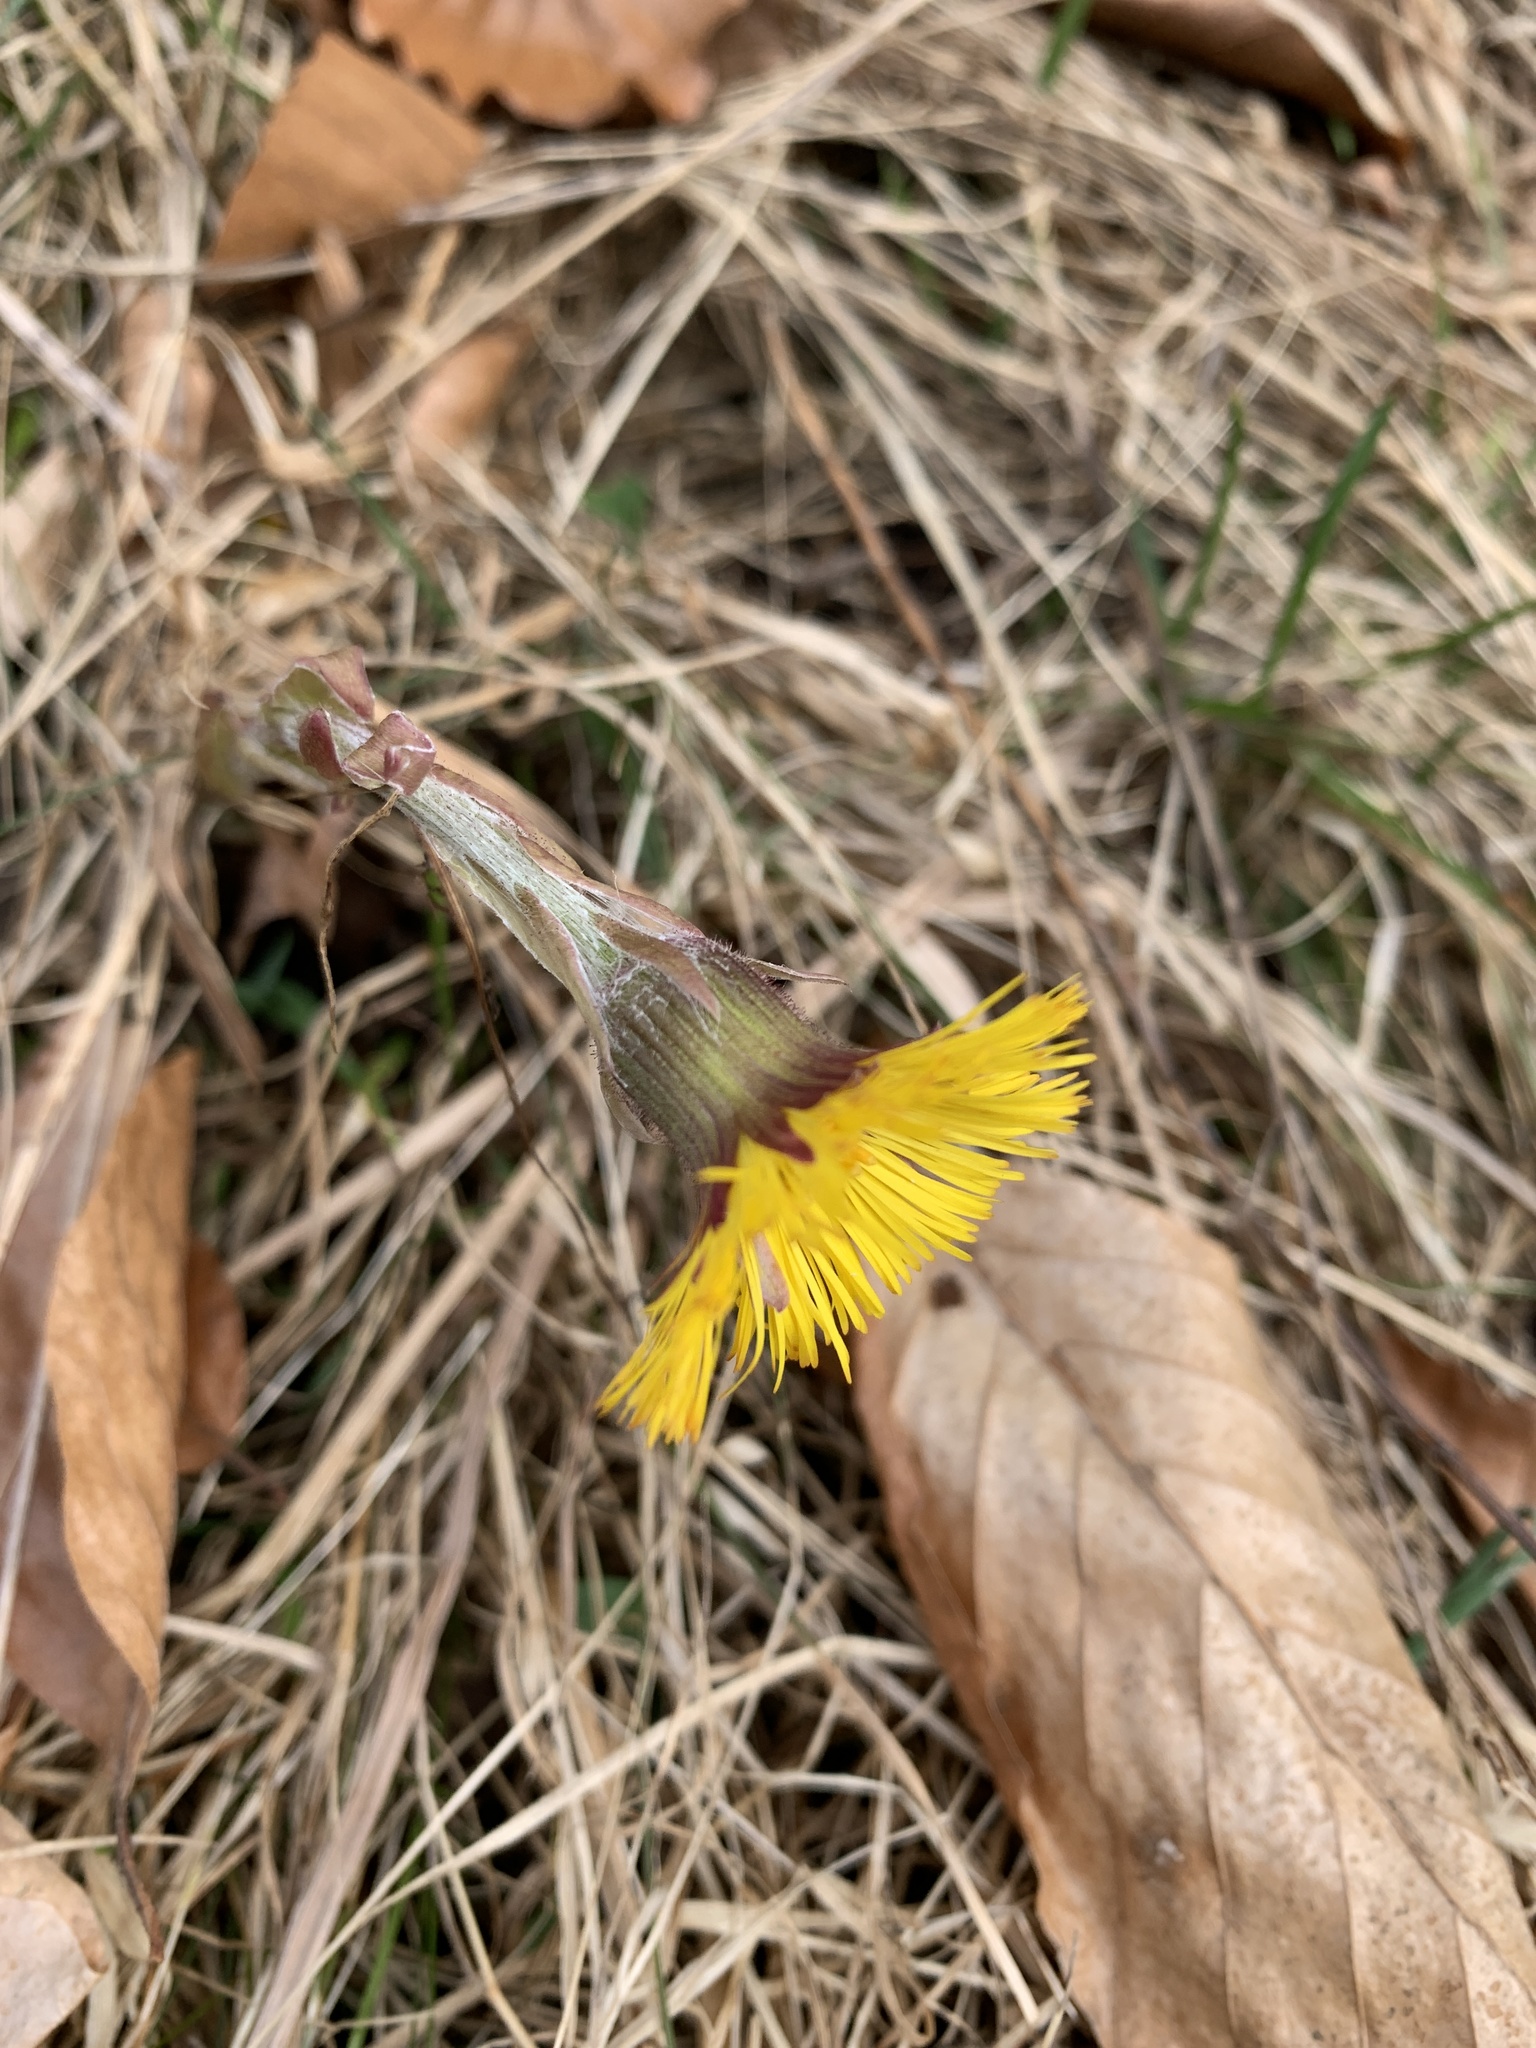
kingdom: Plantae
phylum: Tracheophyta
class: Magnoliopsida
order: Asterales
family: Asteraceae
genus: Tussilago
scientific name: Tussilago farfara
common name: Coltsfoot
